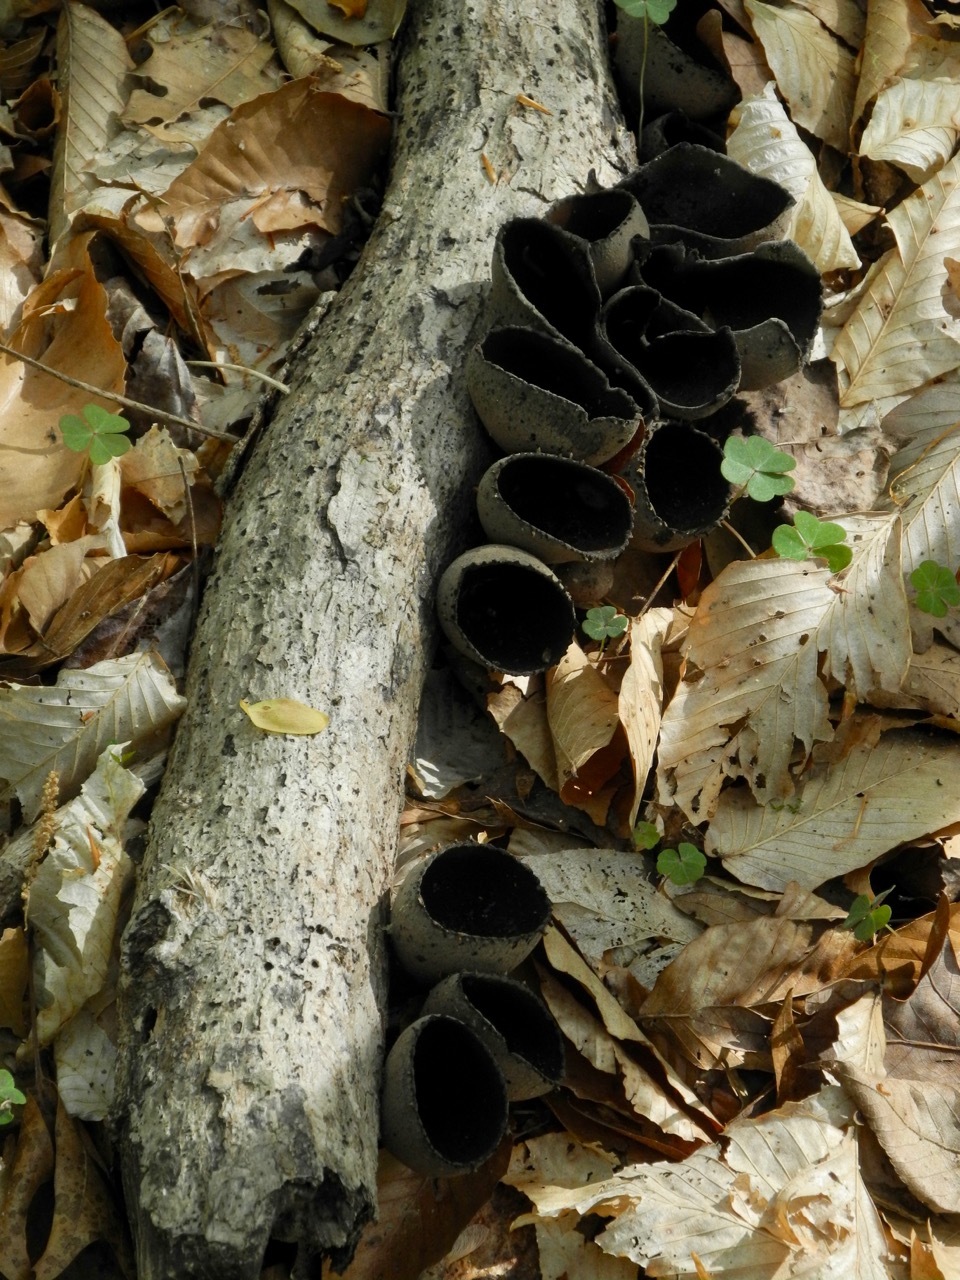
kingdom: Fungi
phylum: Ascomycota
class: Pezizomycetes
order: Pezizales
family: Sarcosomataceae
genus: Urnula
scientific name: Urnula craterium
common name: Devil's urn
